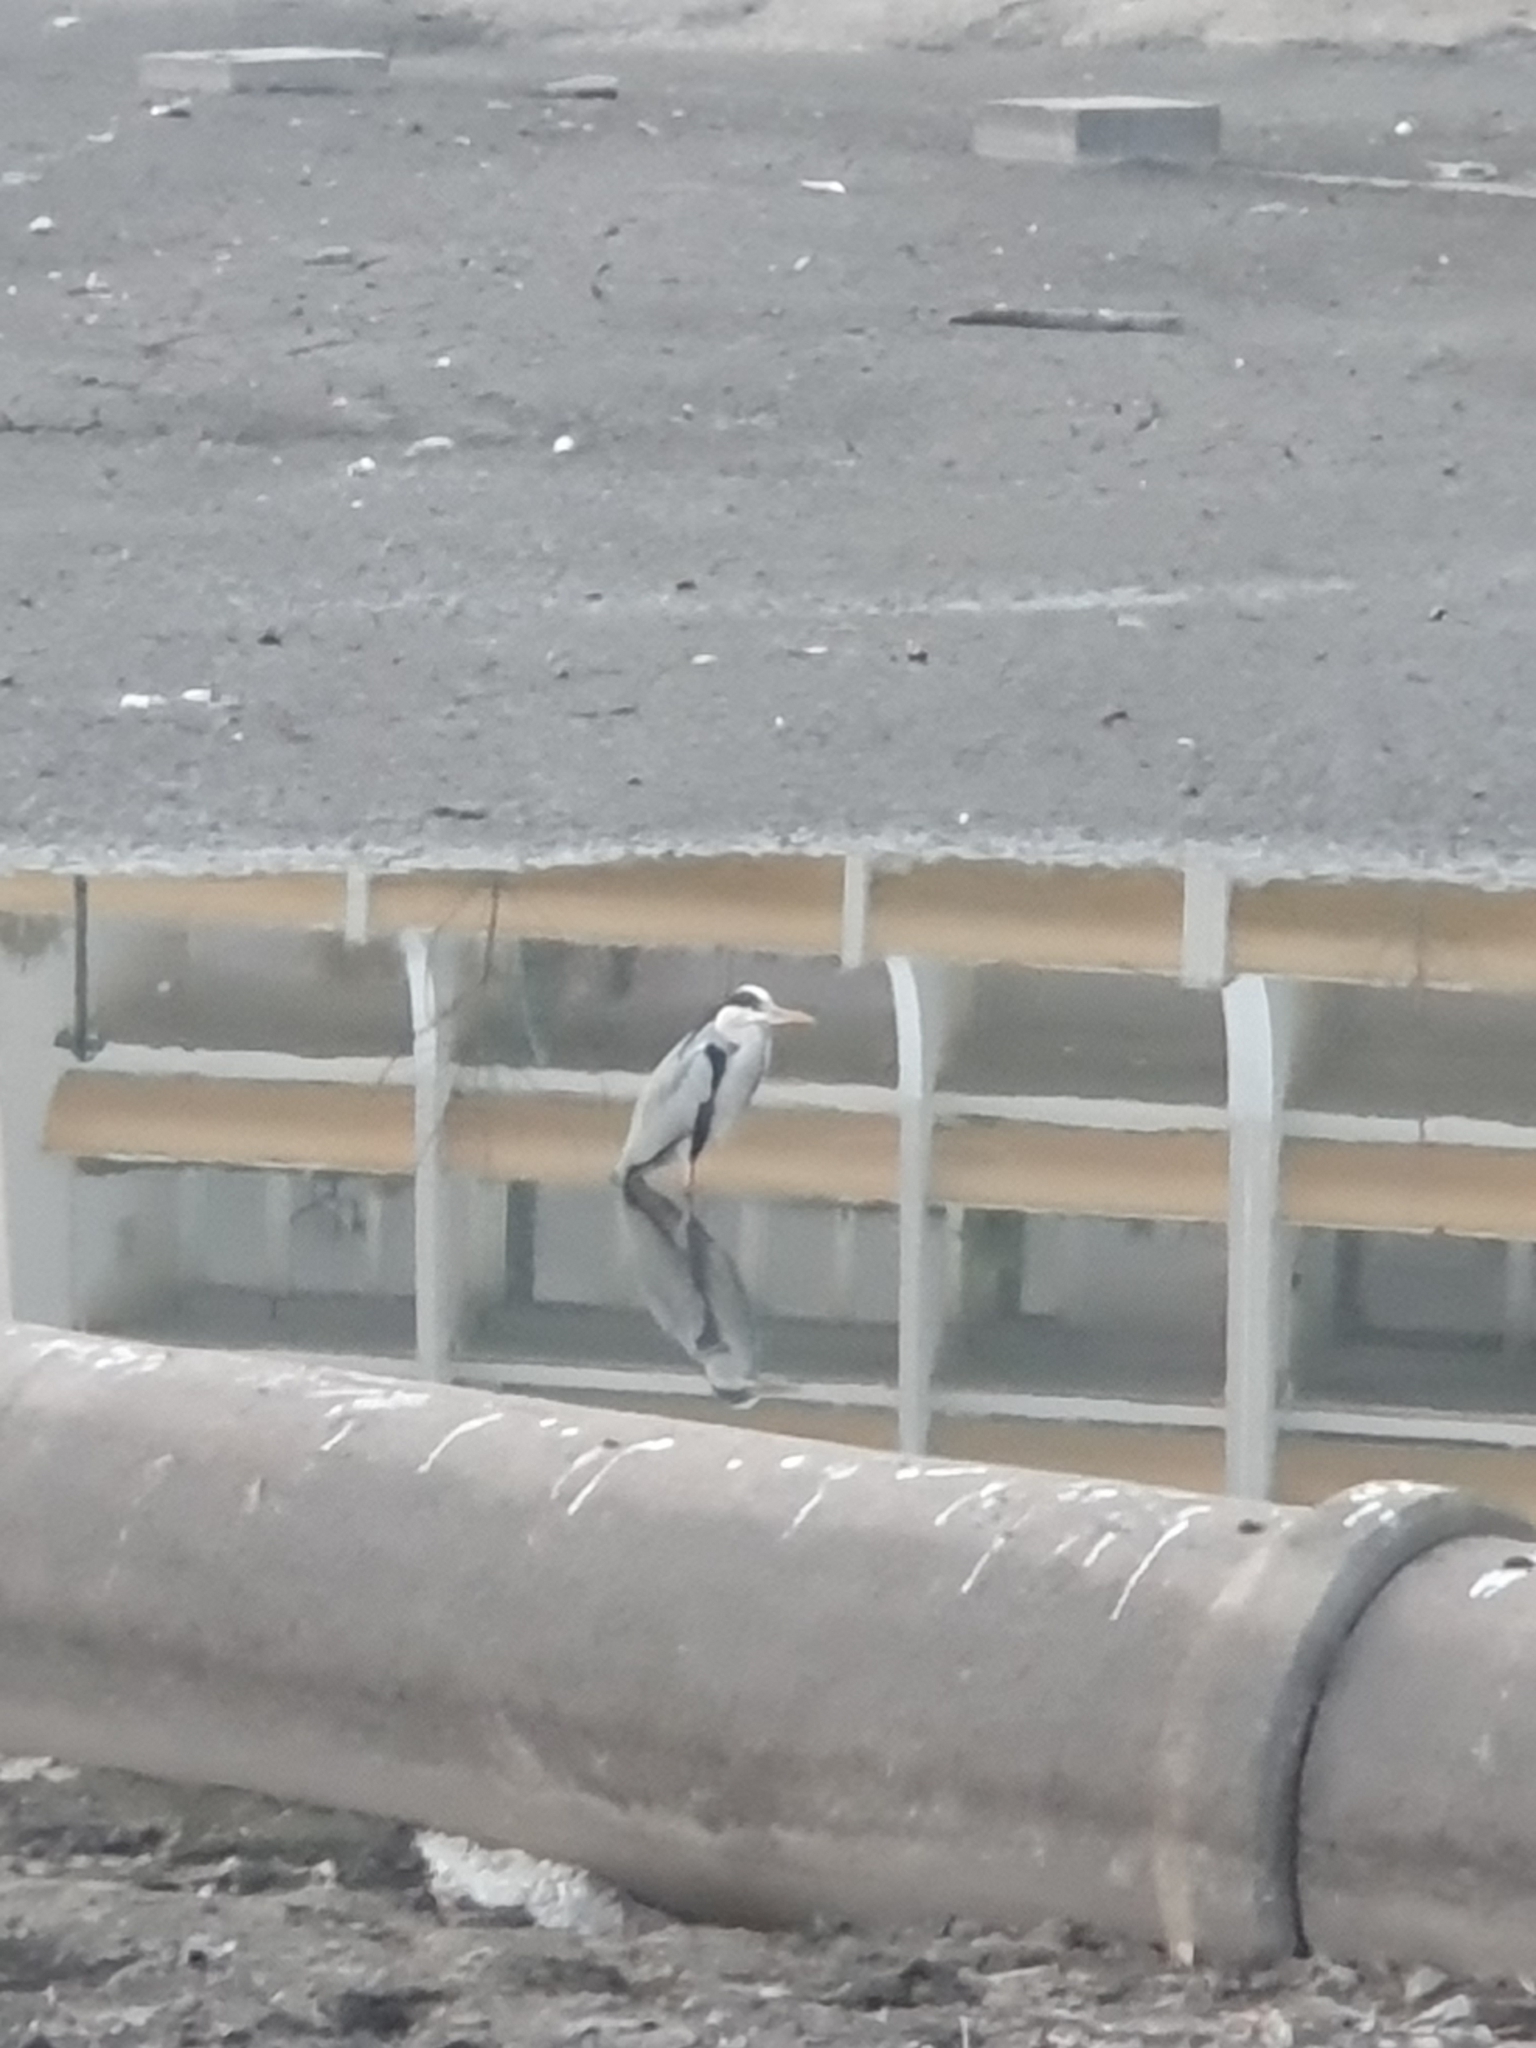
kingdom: Animalia
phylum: Chordata
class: Aves
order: Pelecaniformes
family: Ardeidae
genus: Ardea
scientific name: Ardea cinerea
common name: Grey heron
